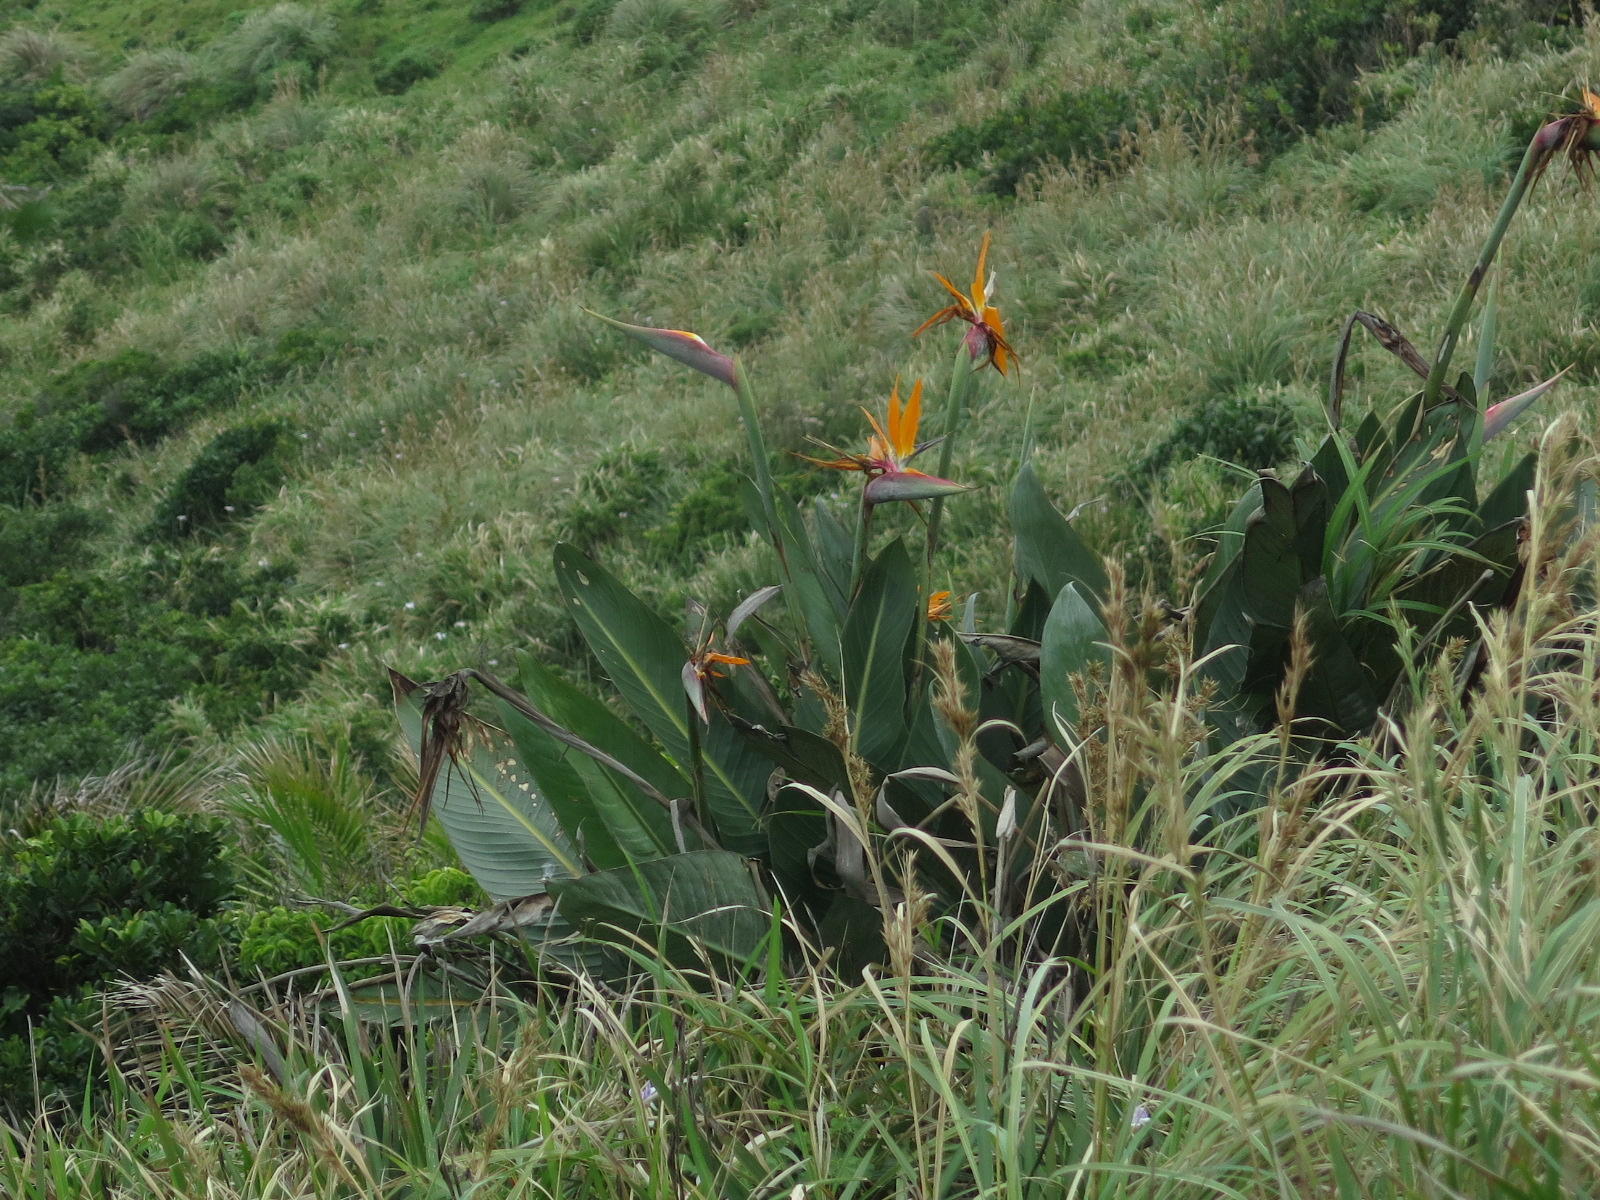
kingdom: Plantae
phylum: Tracheophyta
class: Liliopsida
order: Zingiberales
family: Strelitziaceae
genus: Strelitzia
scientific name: Strelitzia reginae
